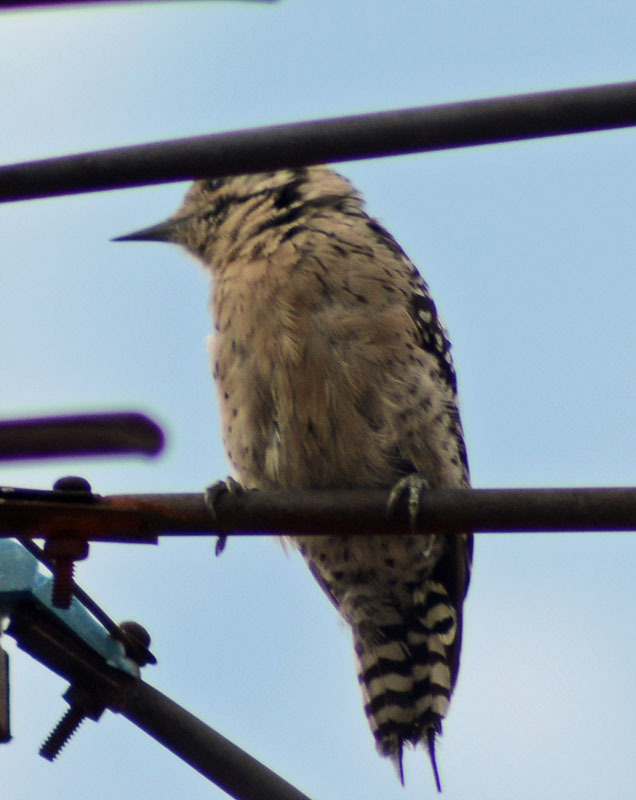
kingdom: Animalia
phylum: Chordata
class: Aves
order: Piciformes
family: Picidae
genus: Dryobates
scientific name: Dryobates scalaris
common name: Ladder-backed woodpecker
